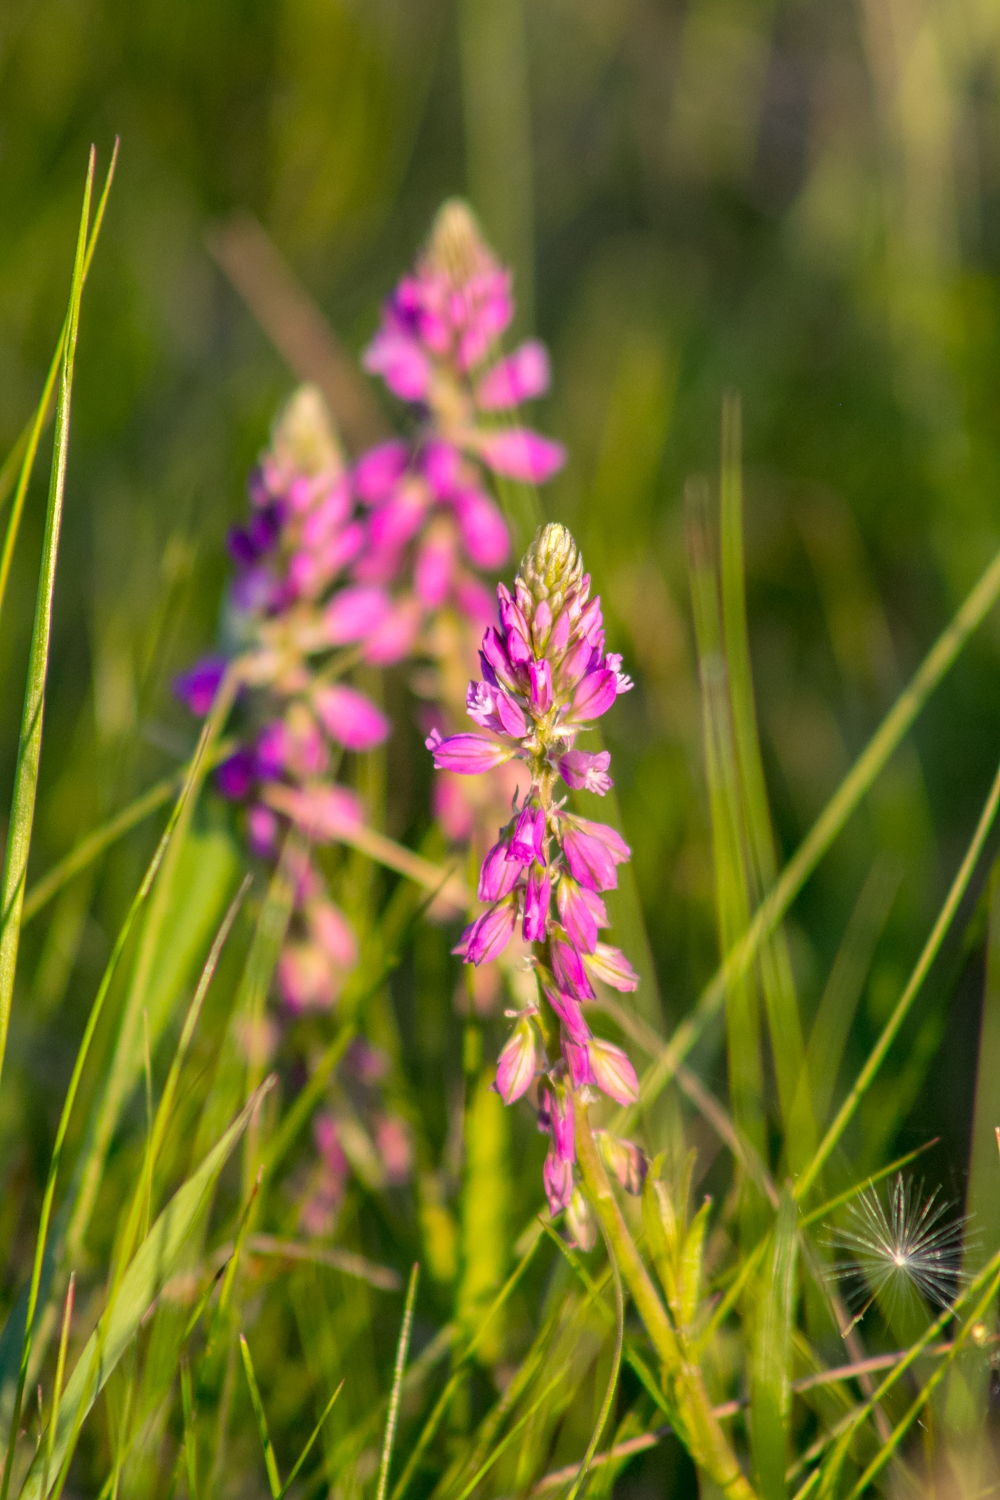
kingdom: Plantae
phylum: Tracheophyta
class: Magnoliopsida
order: Fabales
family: Polygalaceae
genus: Polygala
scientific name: Polygala comosa
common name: Tufted milkwort
